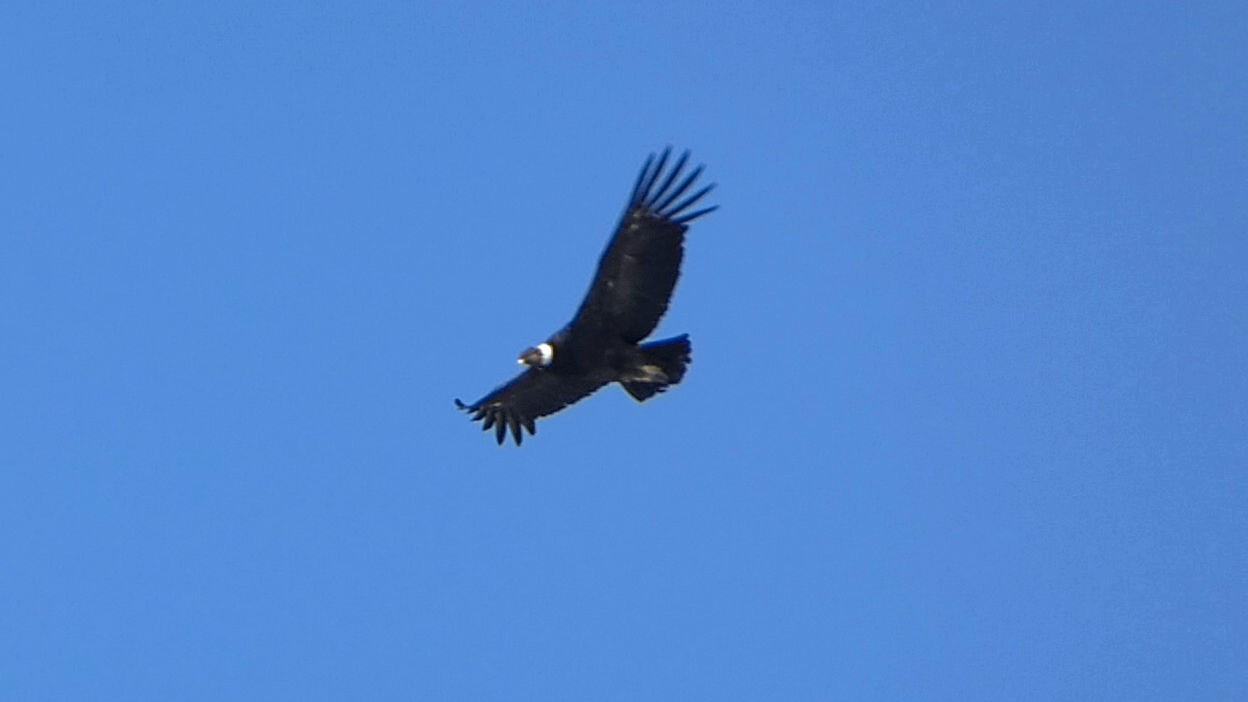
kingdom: Animalia
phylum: Chordata
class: Aves
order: Accipitriformes
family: Cathartidae
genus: Vultur
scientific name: Vultur gryphus
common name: Andean condor
